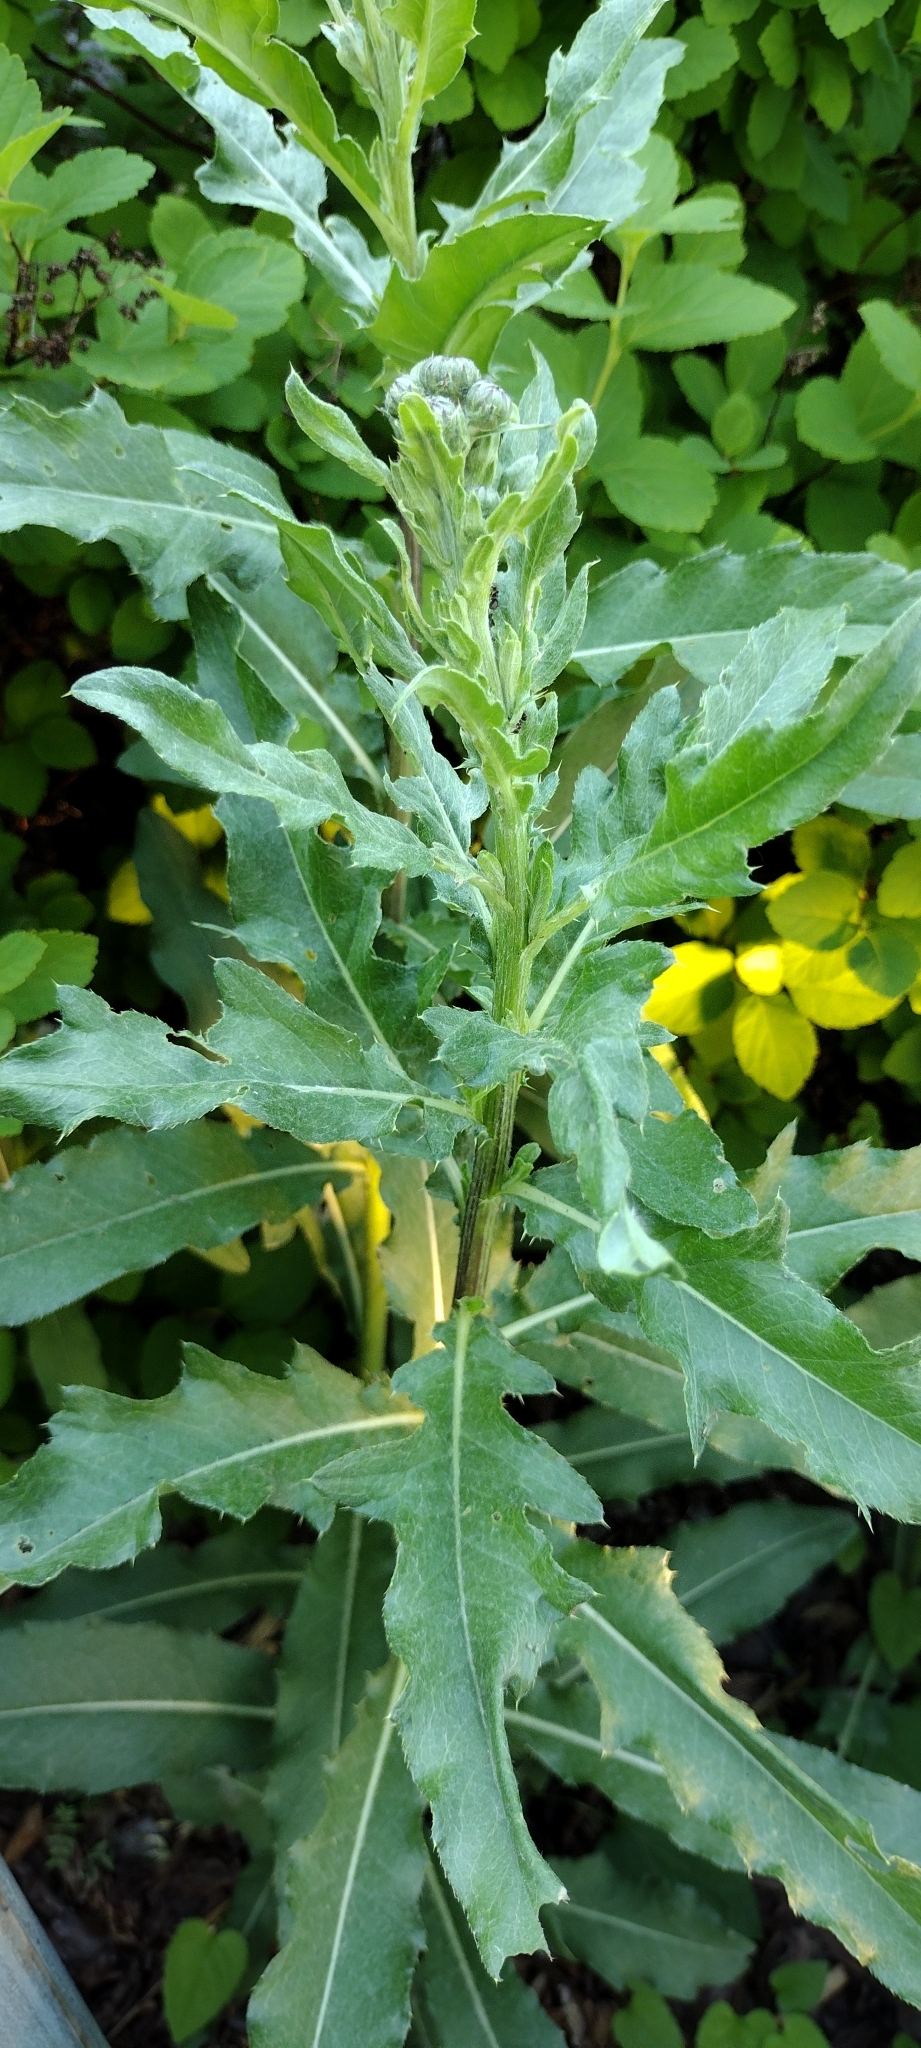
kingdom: Plantae
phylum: Tracheophyta
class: Magnoliopsida
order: Asterales
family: Asteraceae
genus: Cirsium
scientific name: Cirsium arvense
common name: Creeping thistle
